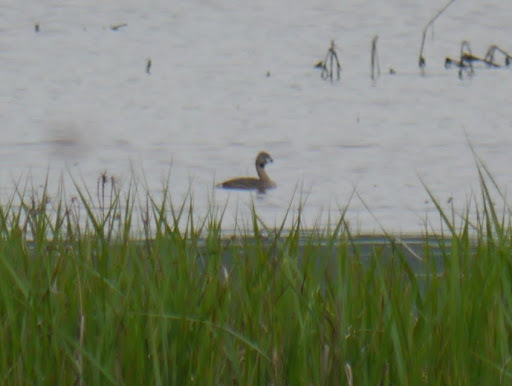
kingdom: Animalia
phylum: Chordata
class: Aves
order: Podicipediformes
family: Podicipedidae
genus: Podilymbus
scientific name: Podilymbus podiceps
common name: Pied-billed grebe
